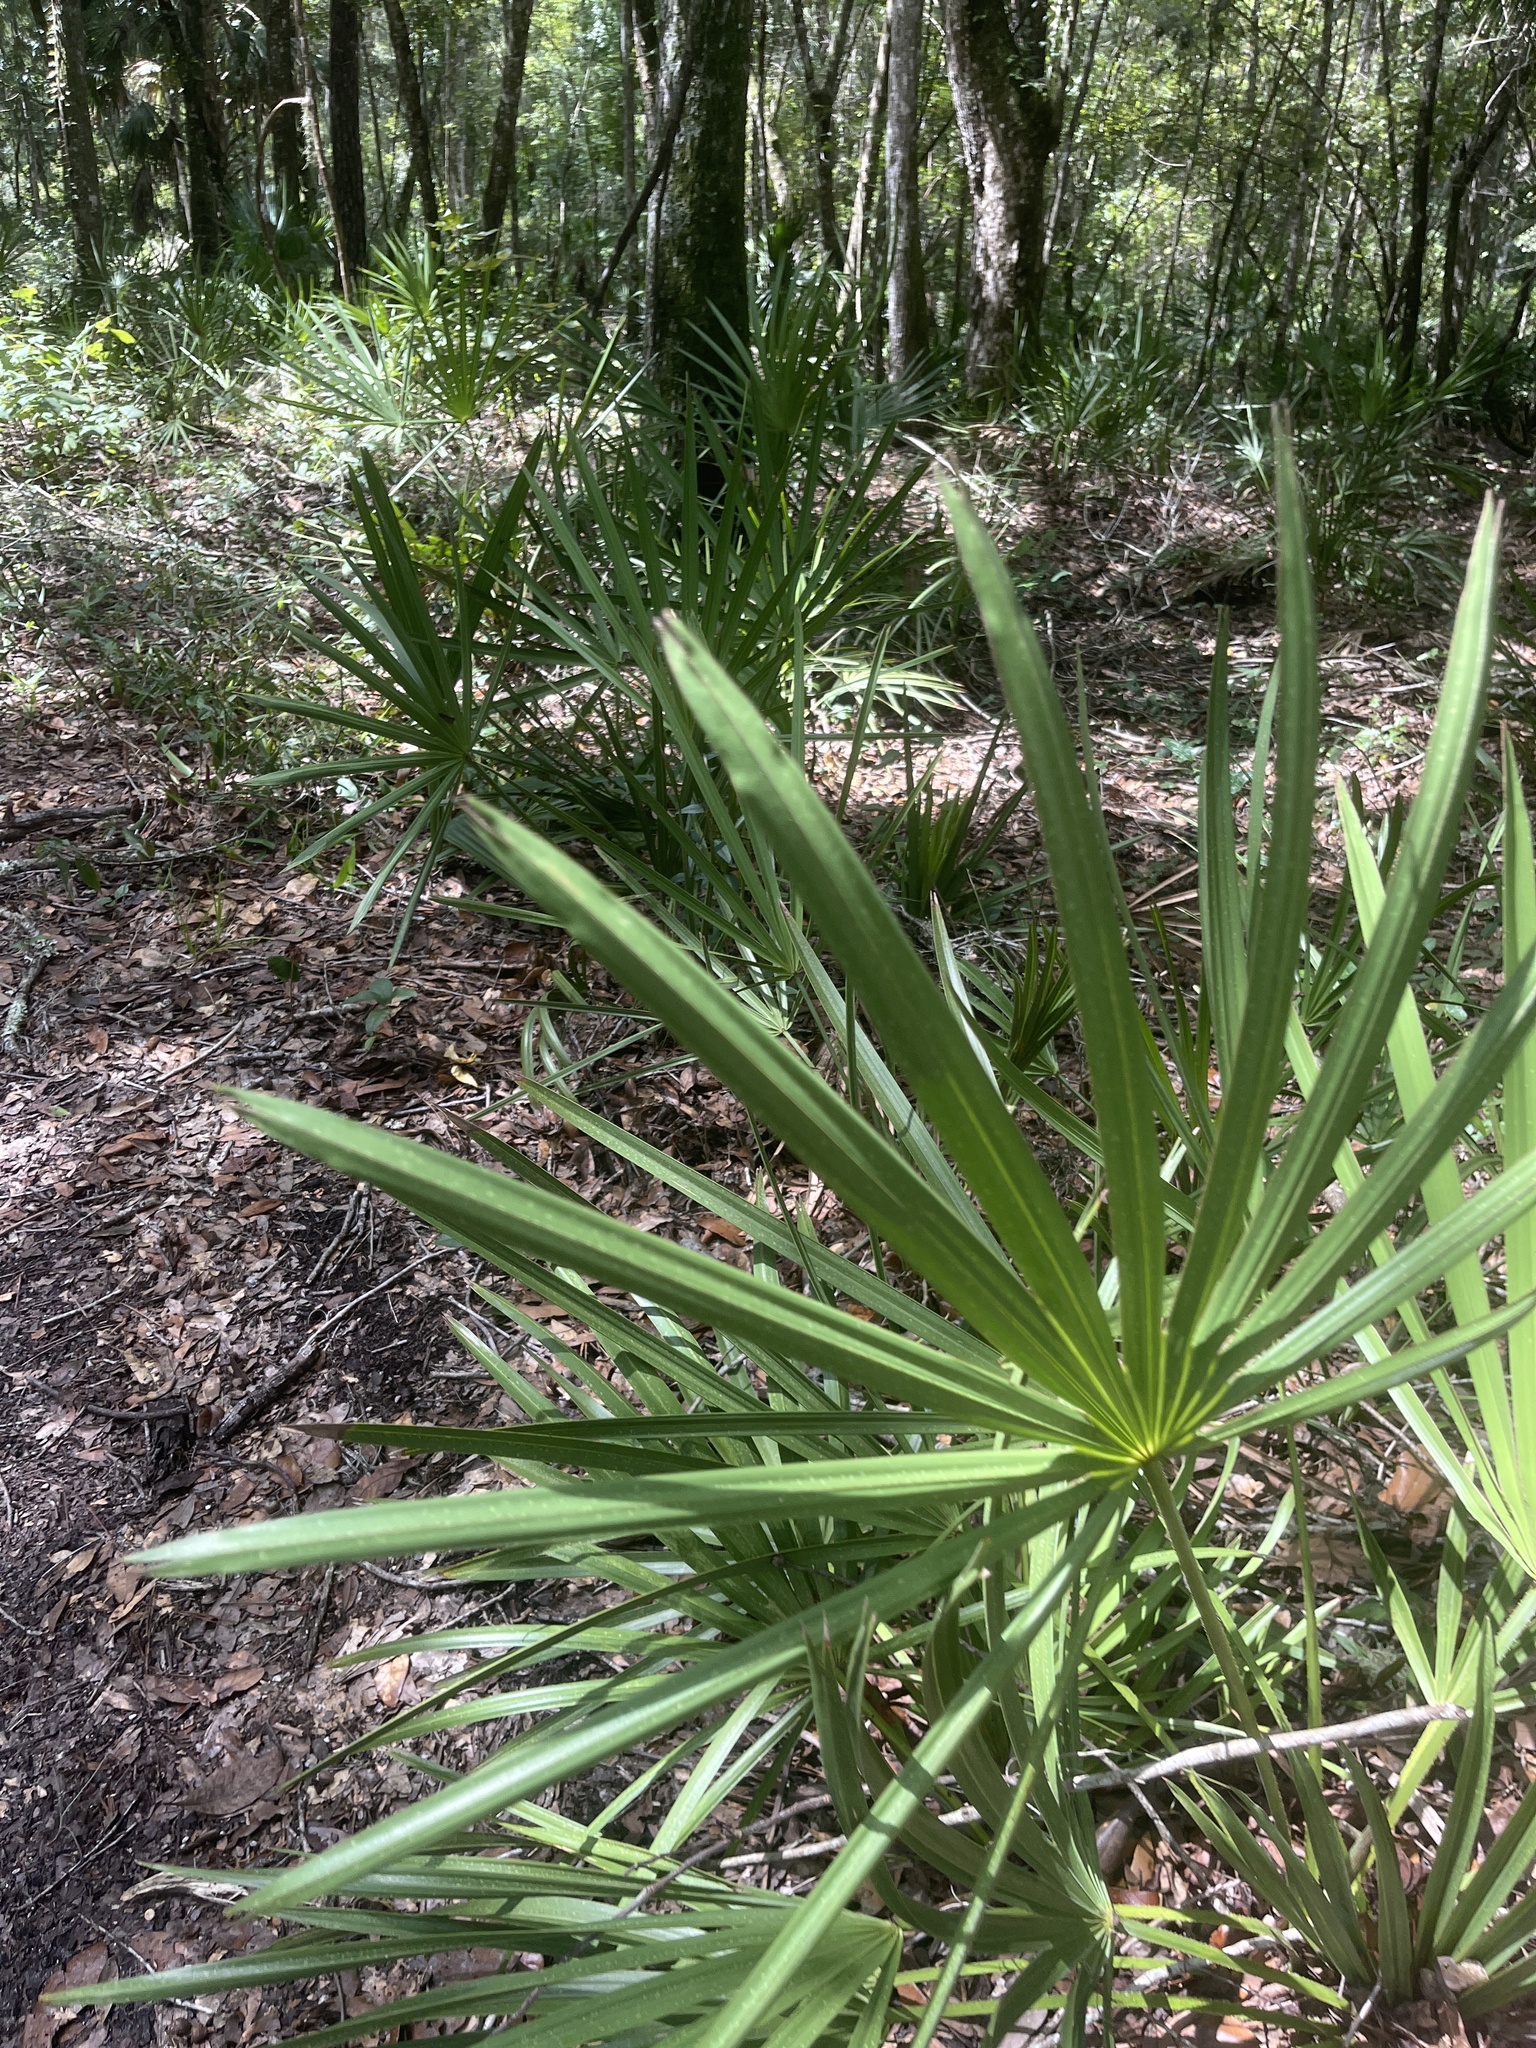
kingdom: Plantae
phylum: Tracheophyta
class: Liliopsida
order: Arecales
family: Arecaceae
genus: Serenoa
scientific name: Serenoa repens
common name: Saw-palmetto
